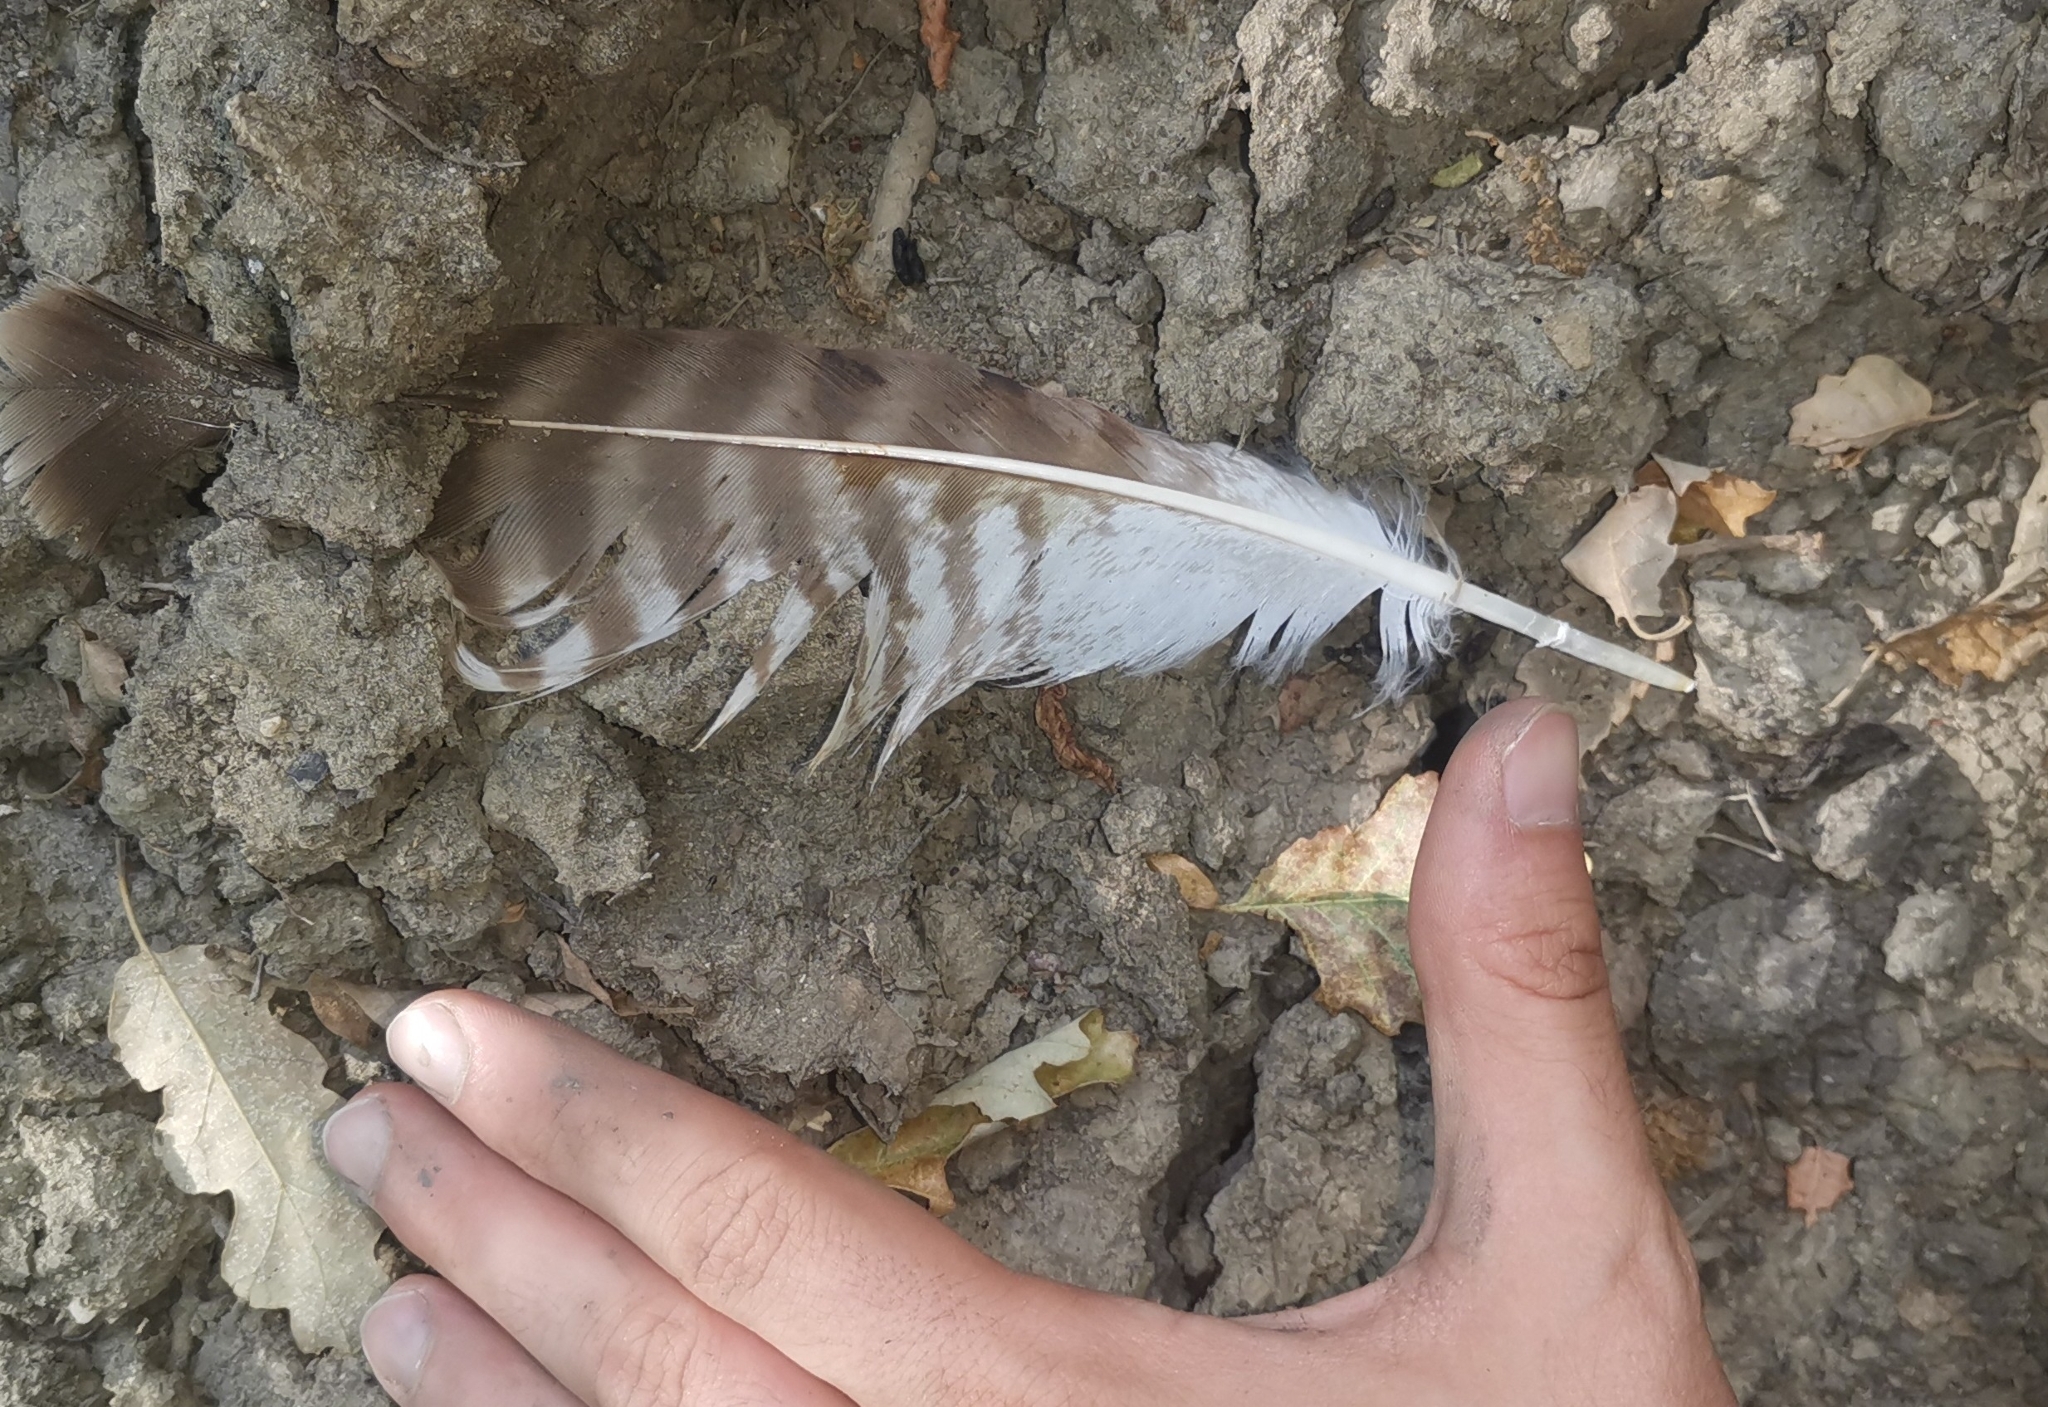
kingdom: Animalia
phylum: Chordata
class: Aves
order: Accipitriformes
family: Accipitridae
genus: Buteo
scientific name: Buteo buteo
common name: Common buzzard
